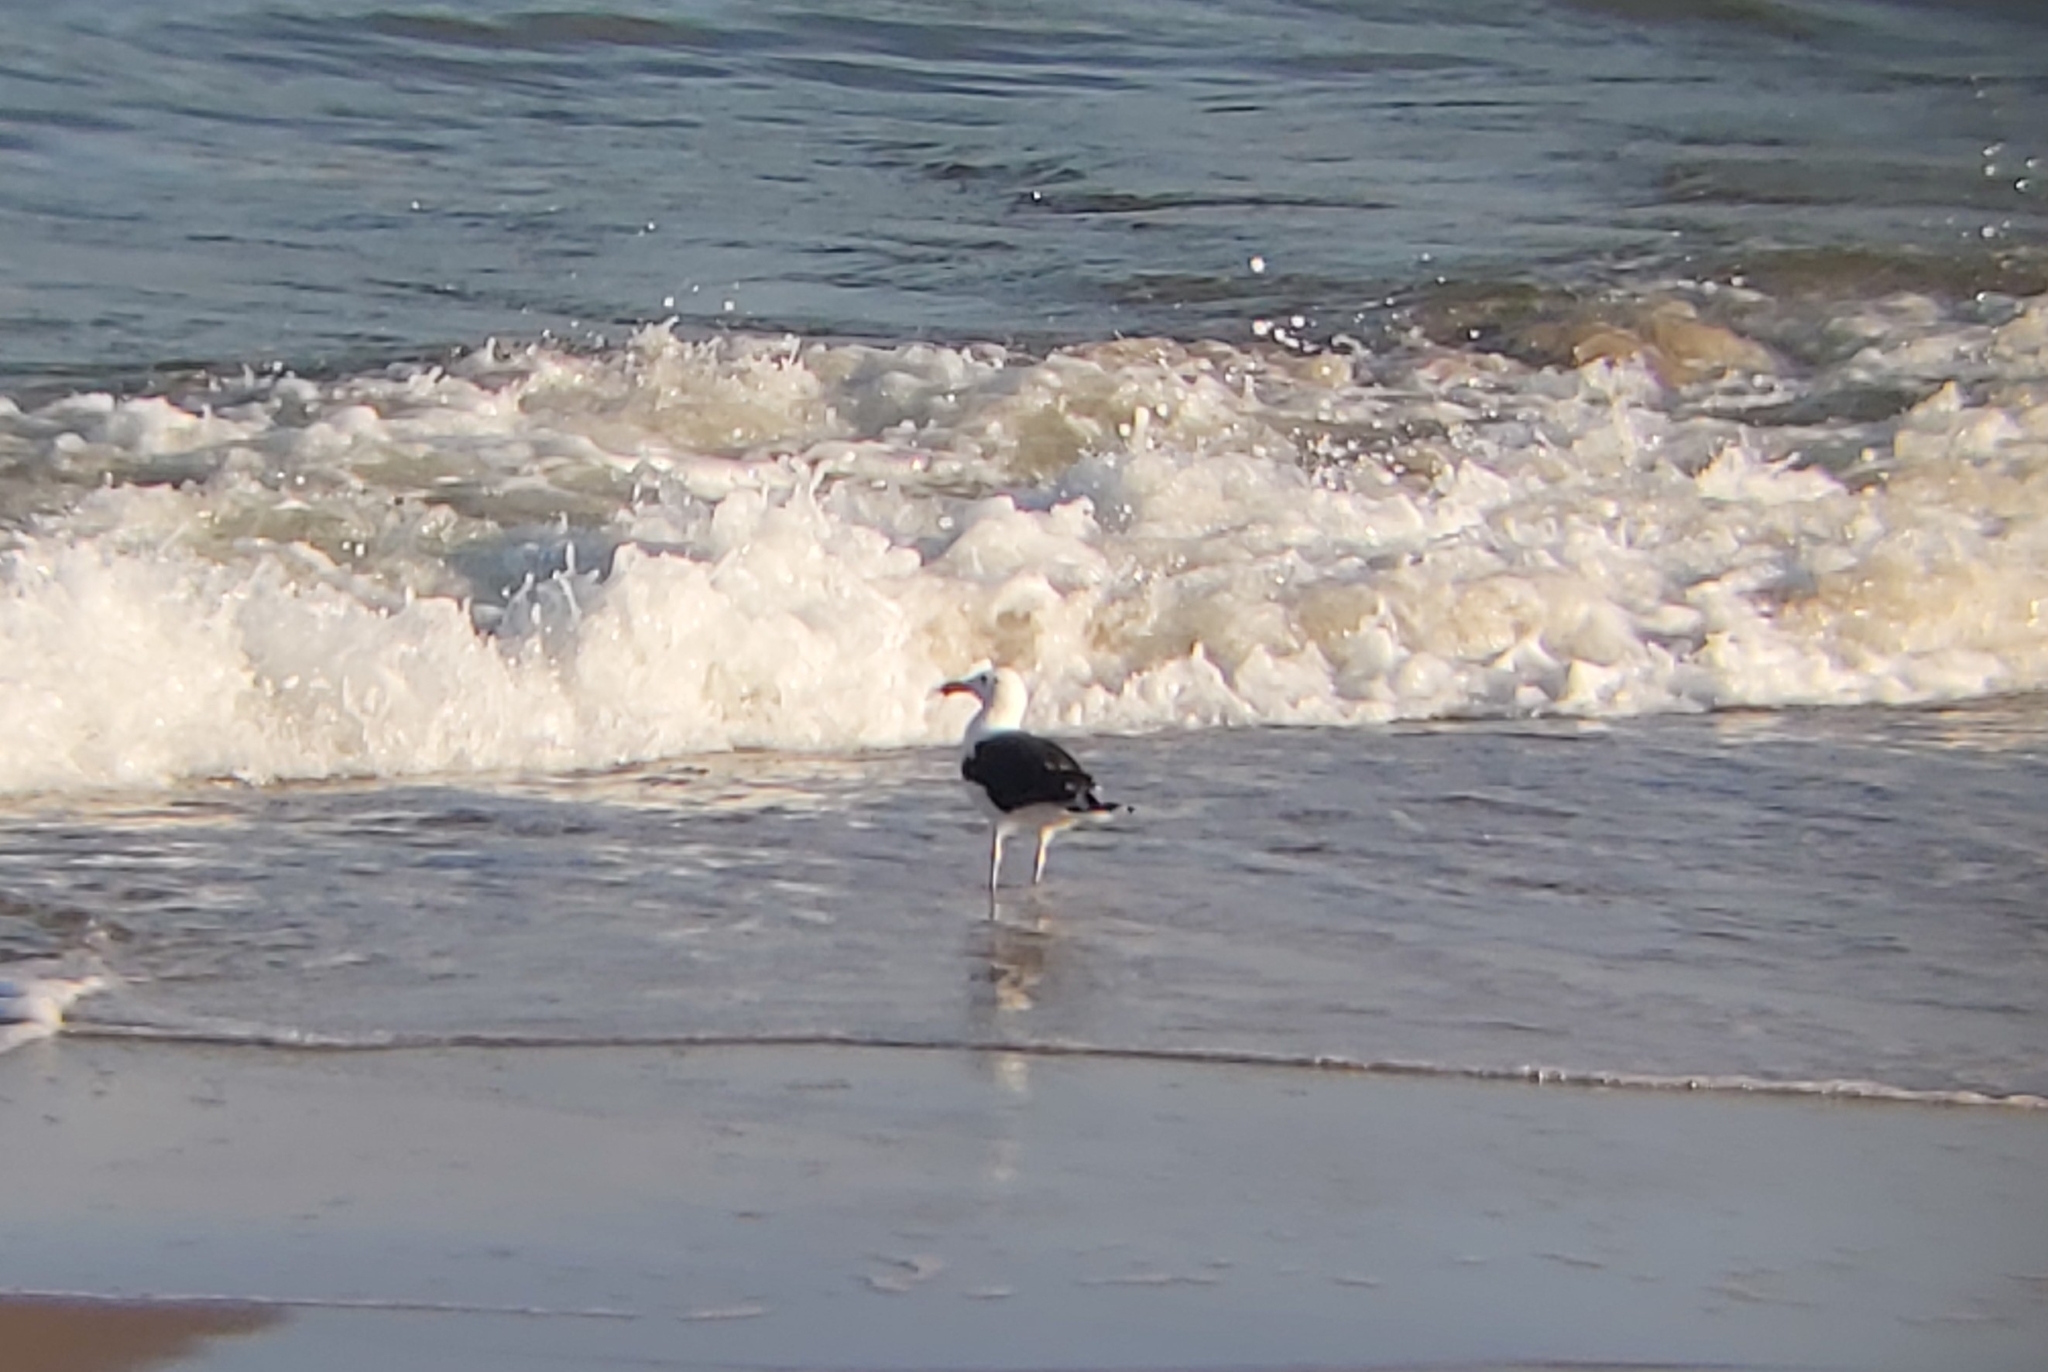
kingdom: Animalia
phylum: Chordata
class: Aves
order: Charadriiformes
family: Laridae
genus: Larus
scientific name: Larus marinus
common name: Great black-backed gull
